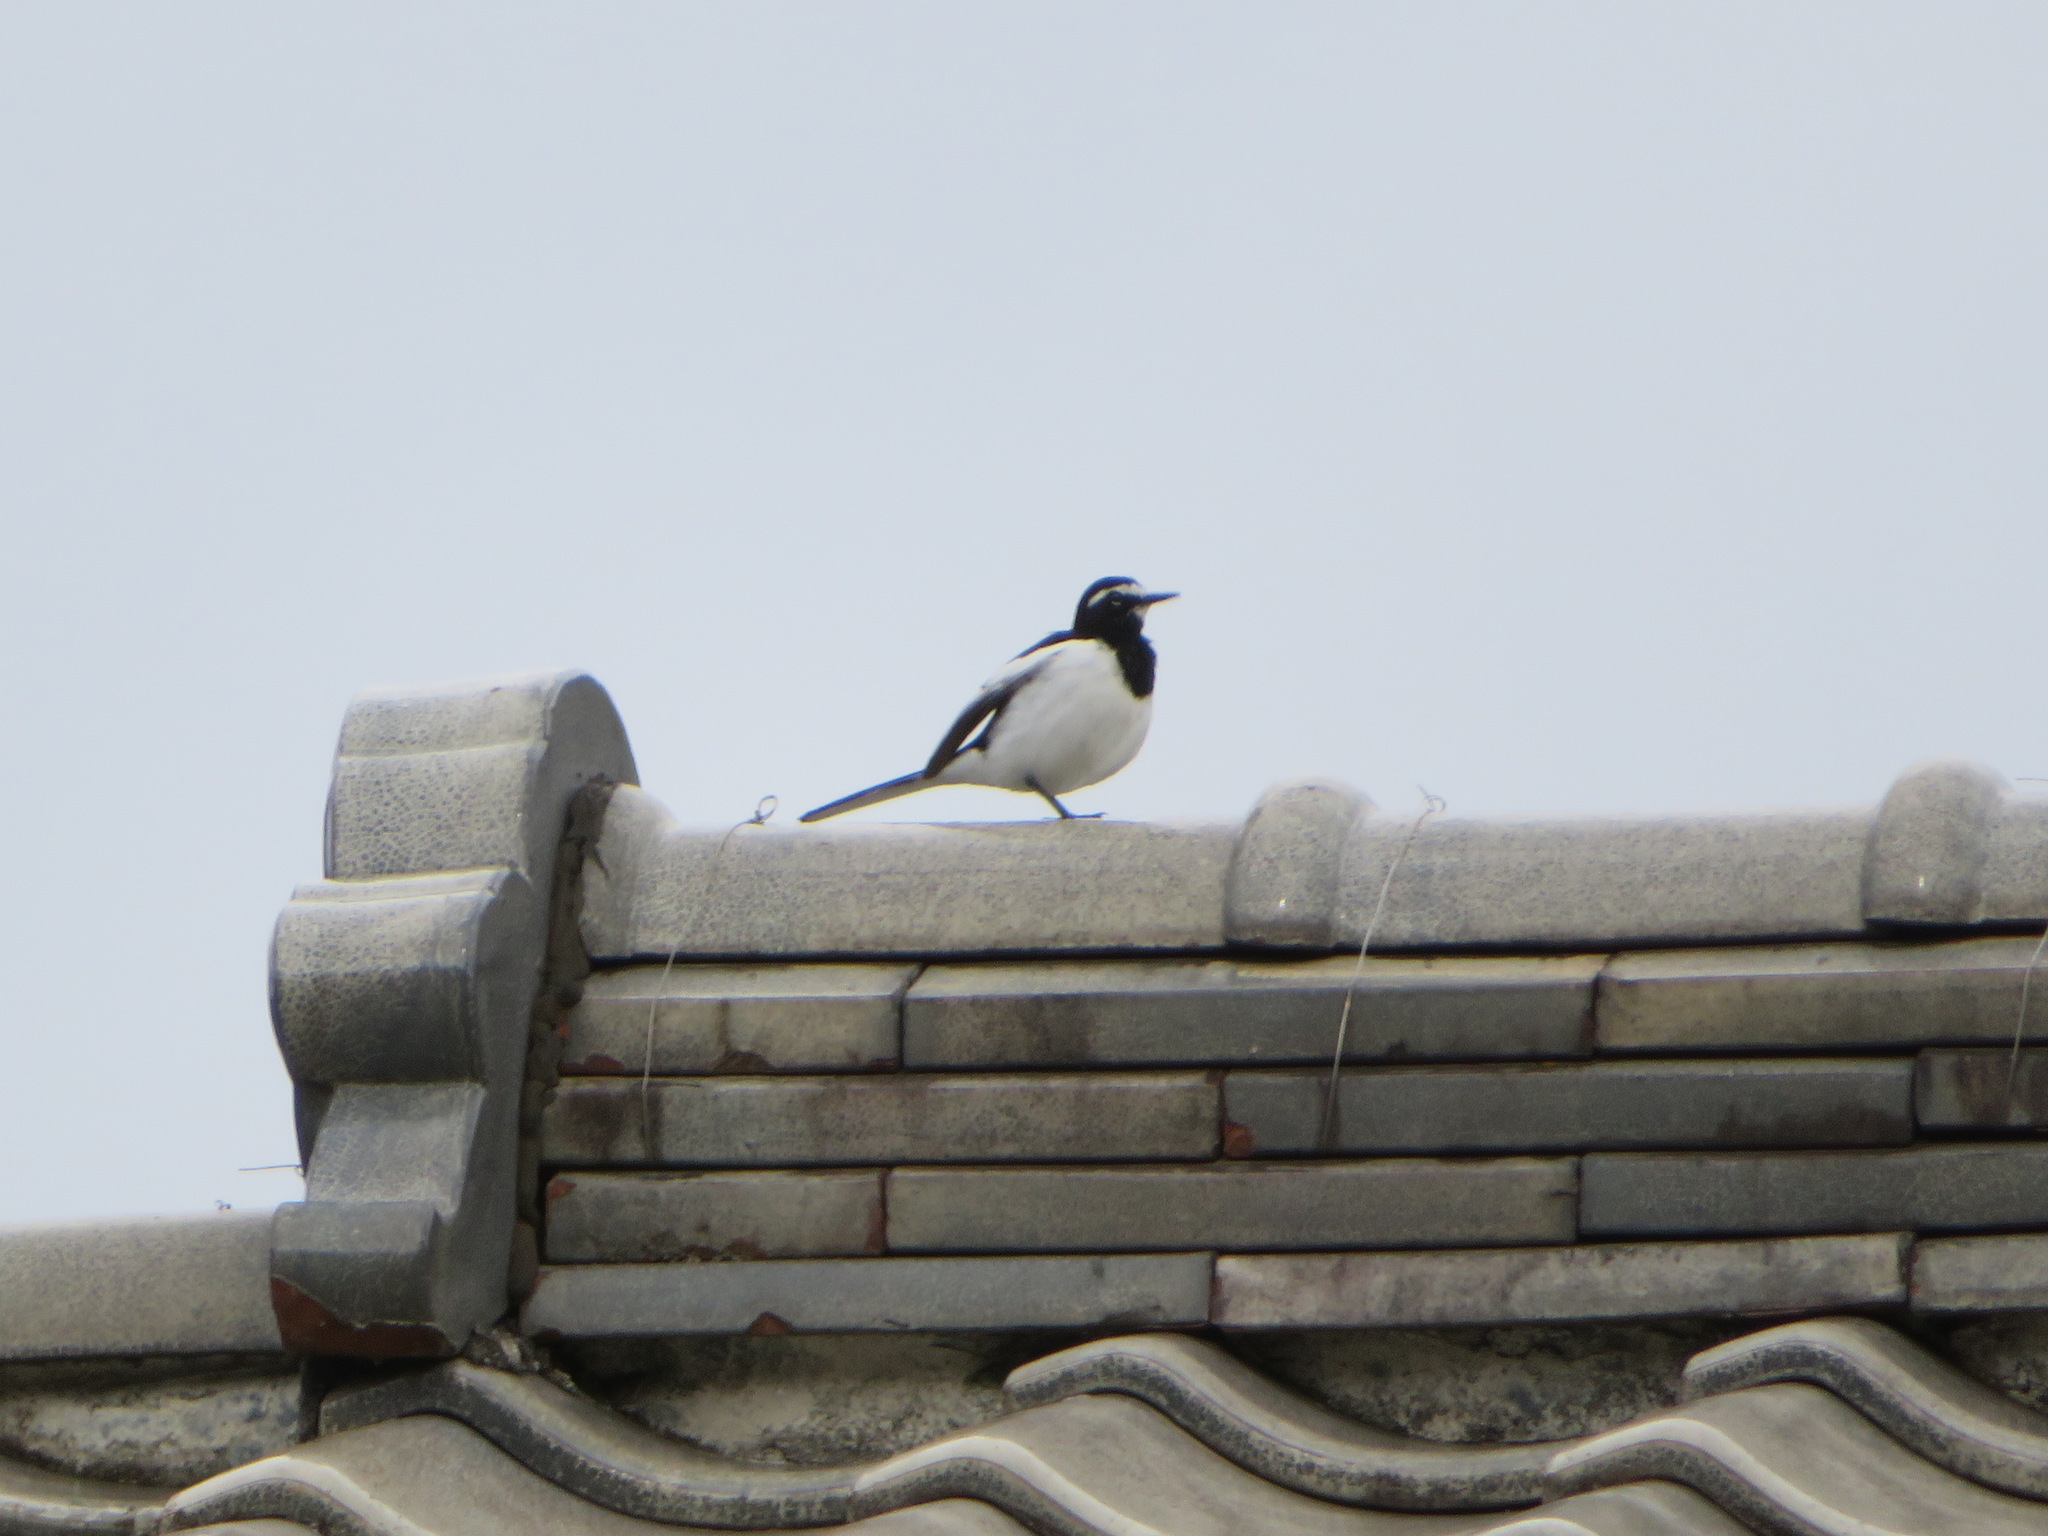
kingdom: Animalia
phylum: Chordata
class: Aves
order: Passeriformes
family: Motacillidae
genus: Motacilla
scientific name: Motacilla grandis
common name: Japanese wagtail
